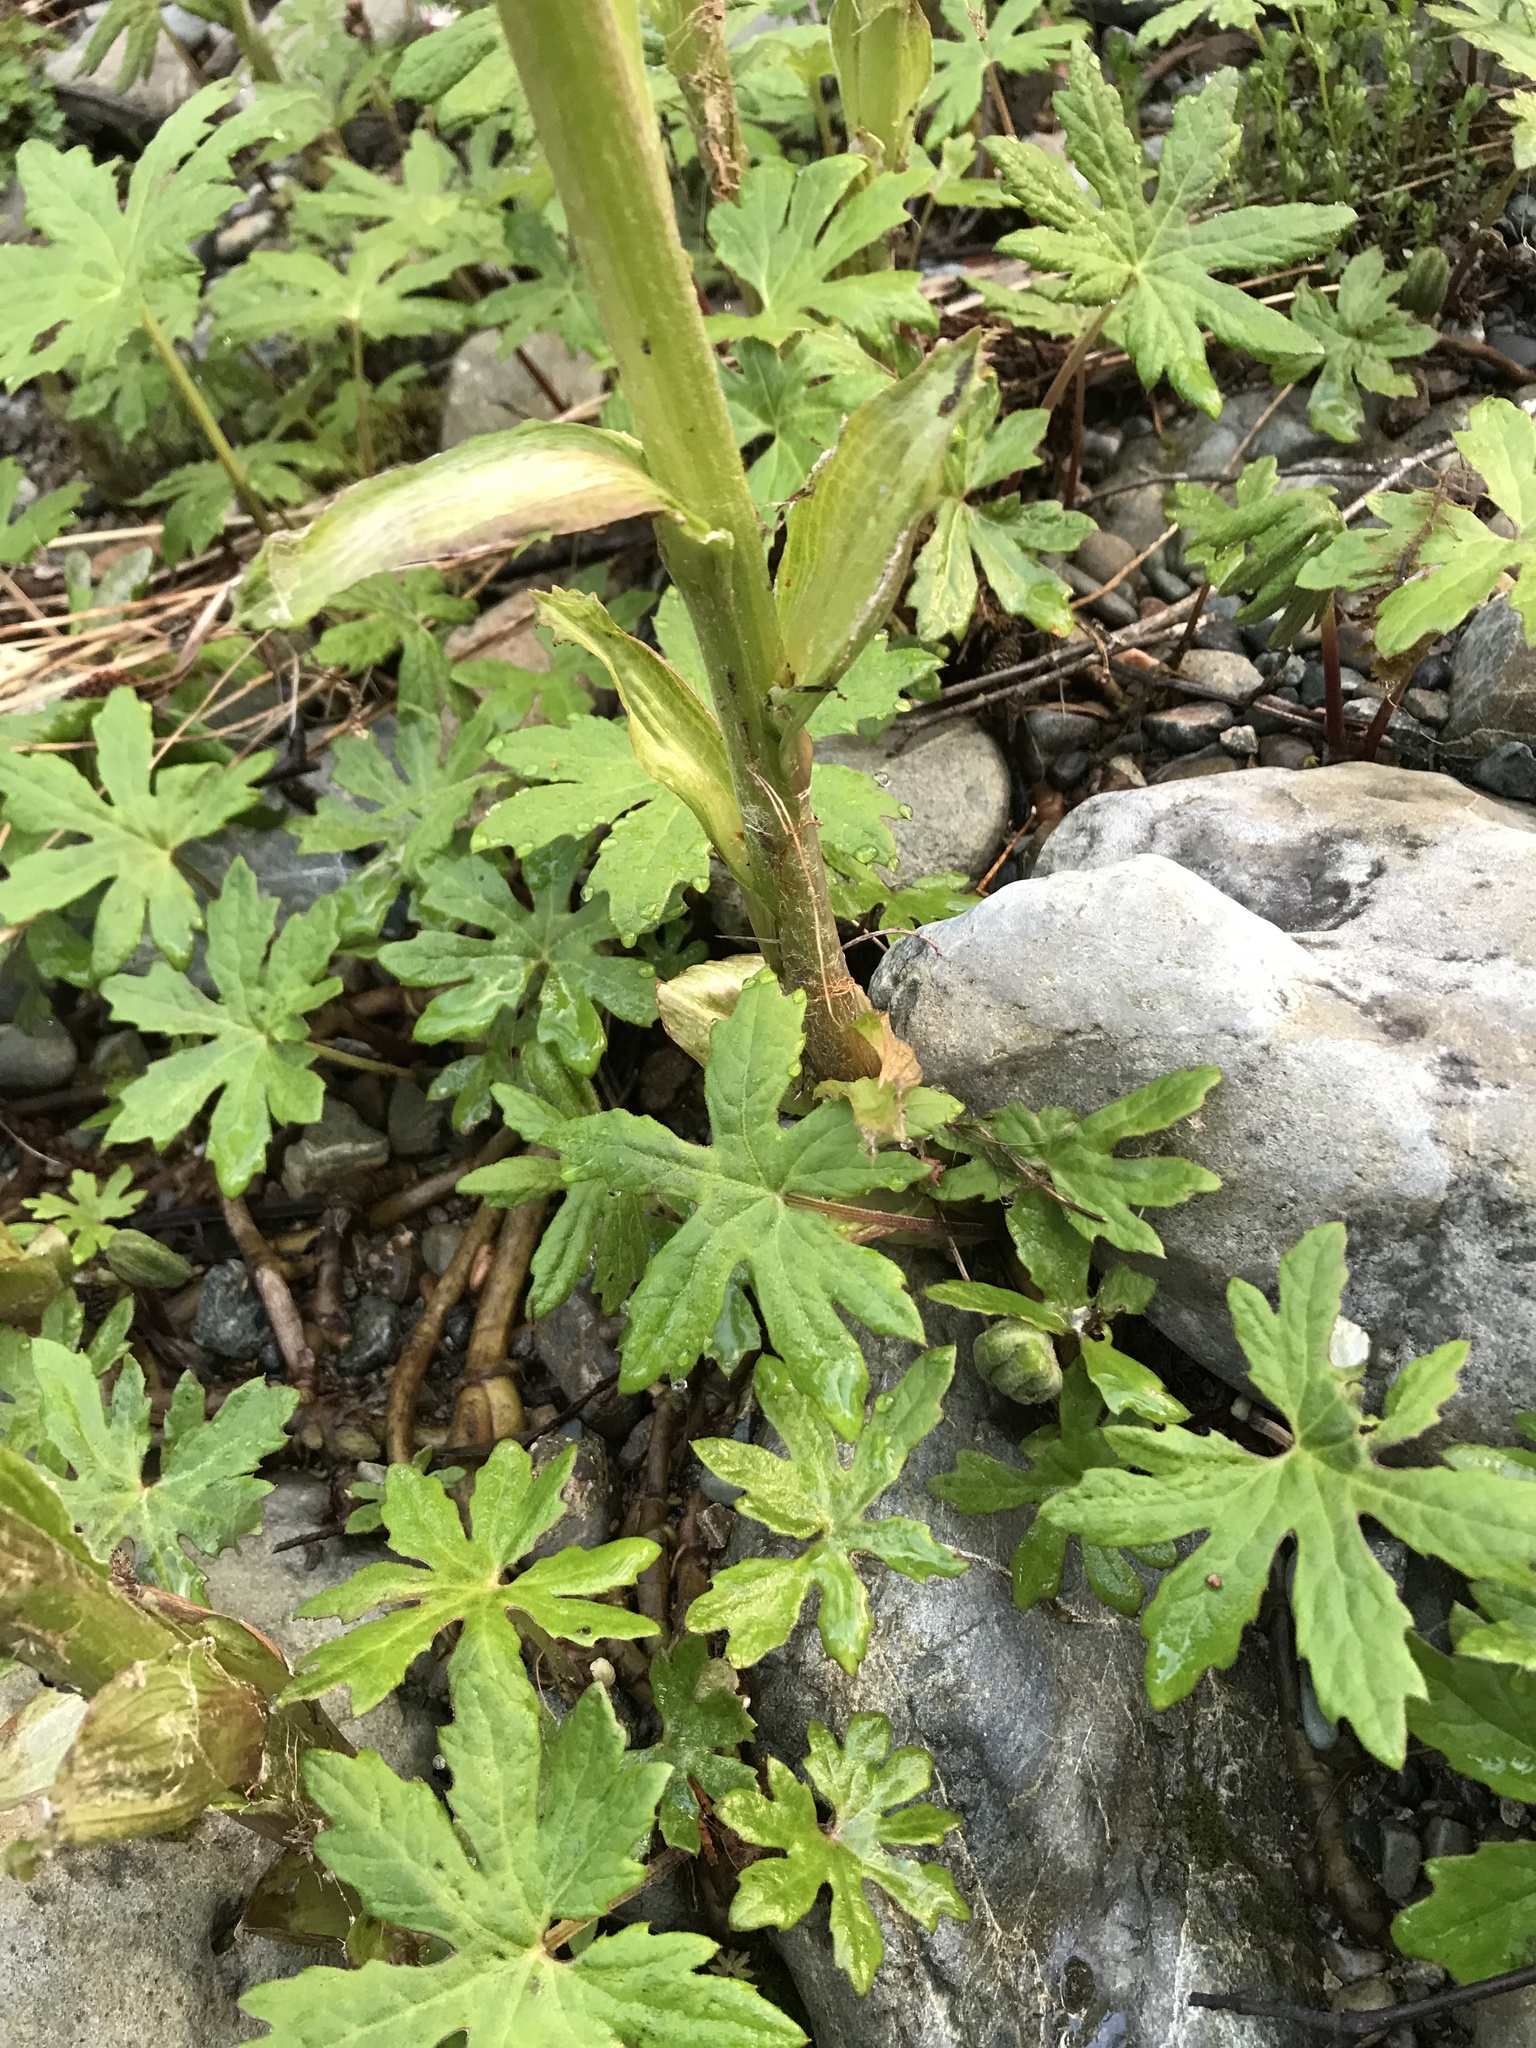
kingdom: Plantae
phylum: Tracheophyta
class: Magnoliopsida
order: Asterales
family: Asteraceae
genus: Petasites
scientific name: Petasites frigidus
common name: Arctic butterbur
